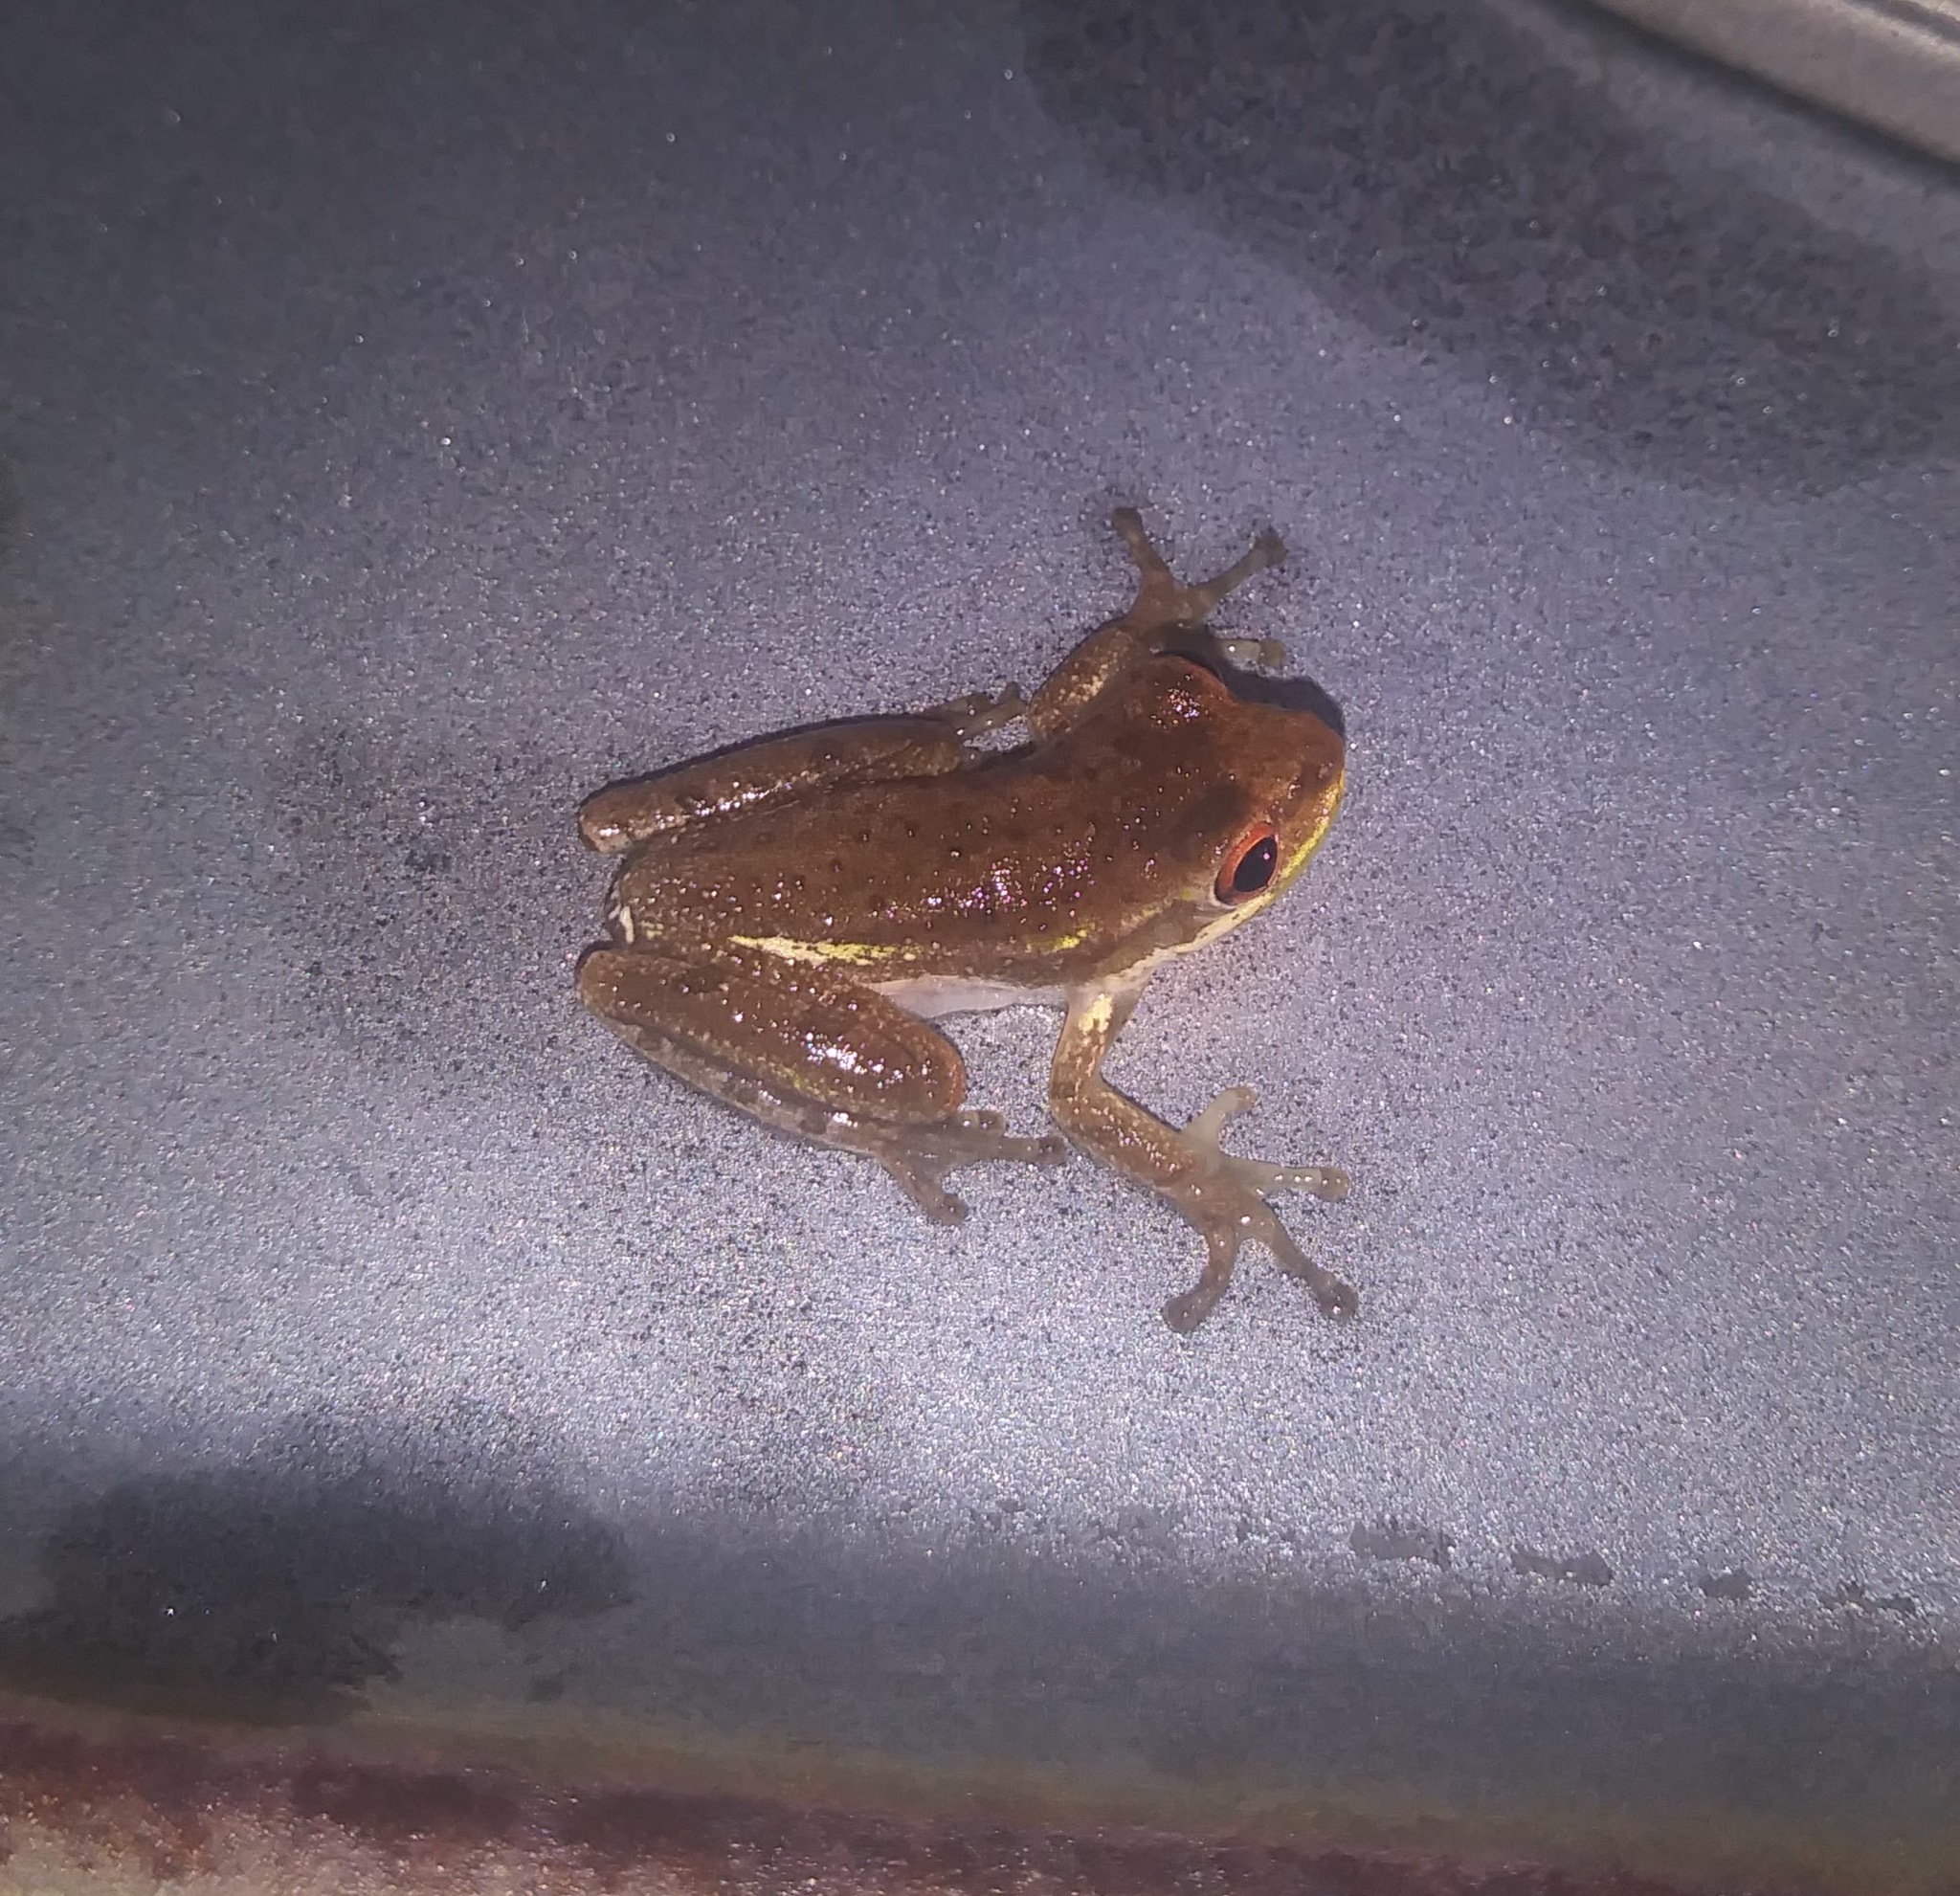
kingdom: Animalia
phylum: Chordata
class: Amphibia
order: Anura
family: Hylidae
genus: Osteopilus
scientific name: Osteopilus septentrionalis
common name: Cuban treefrog
